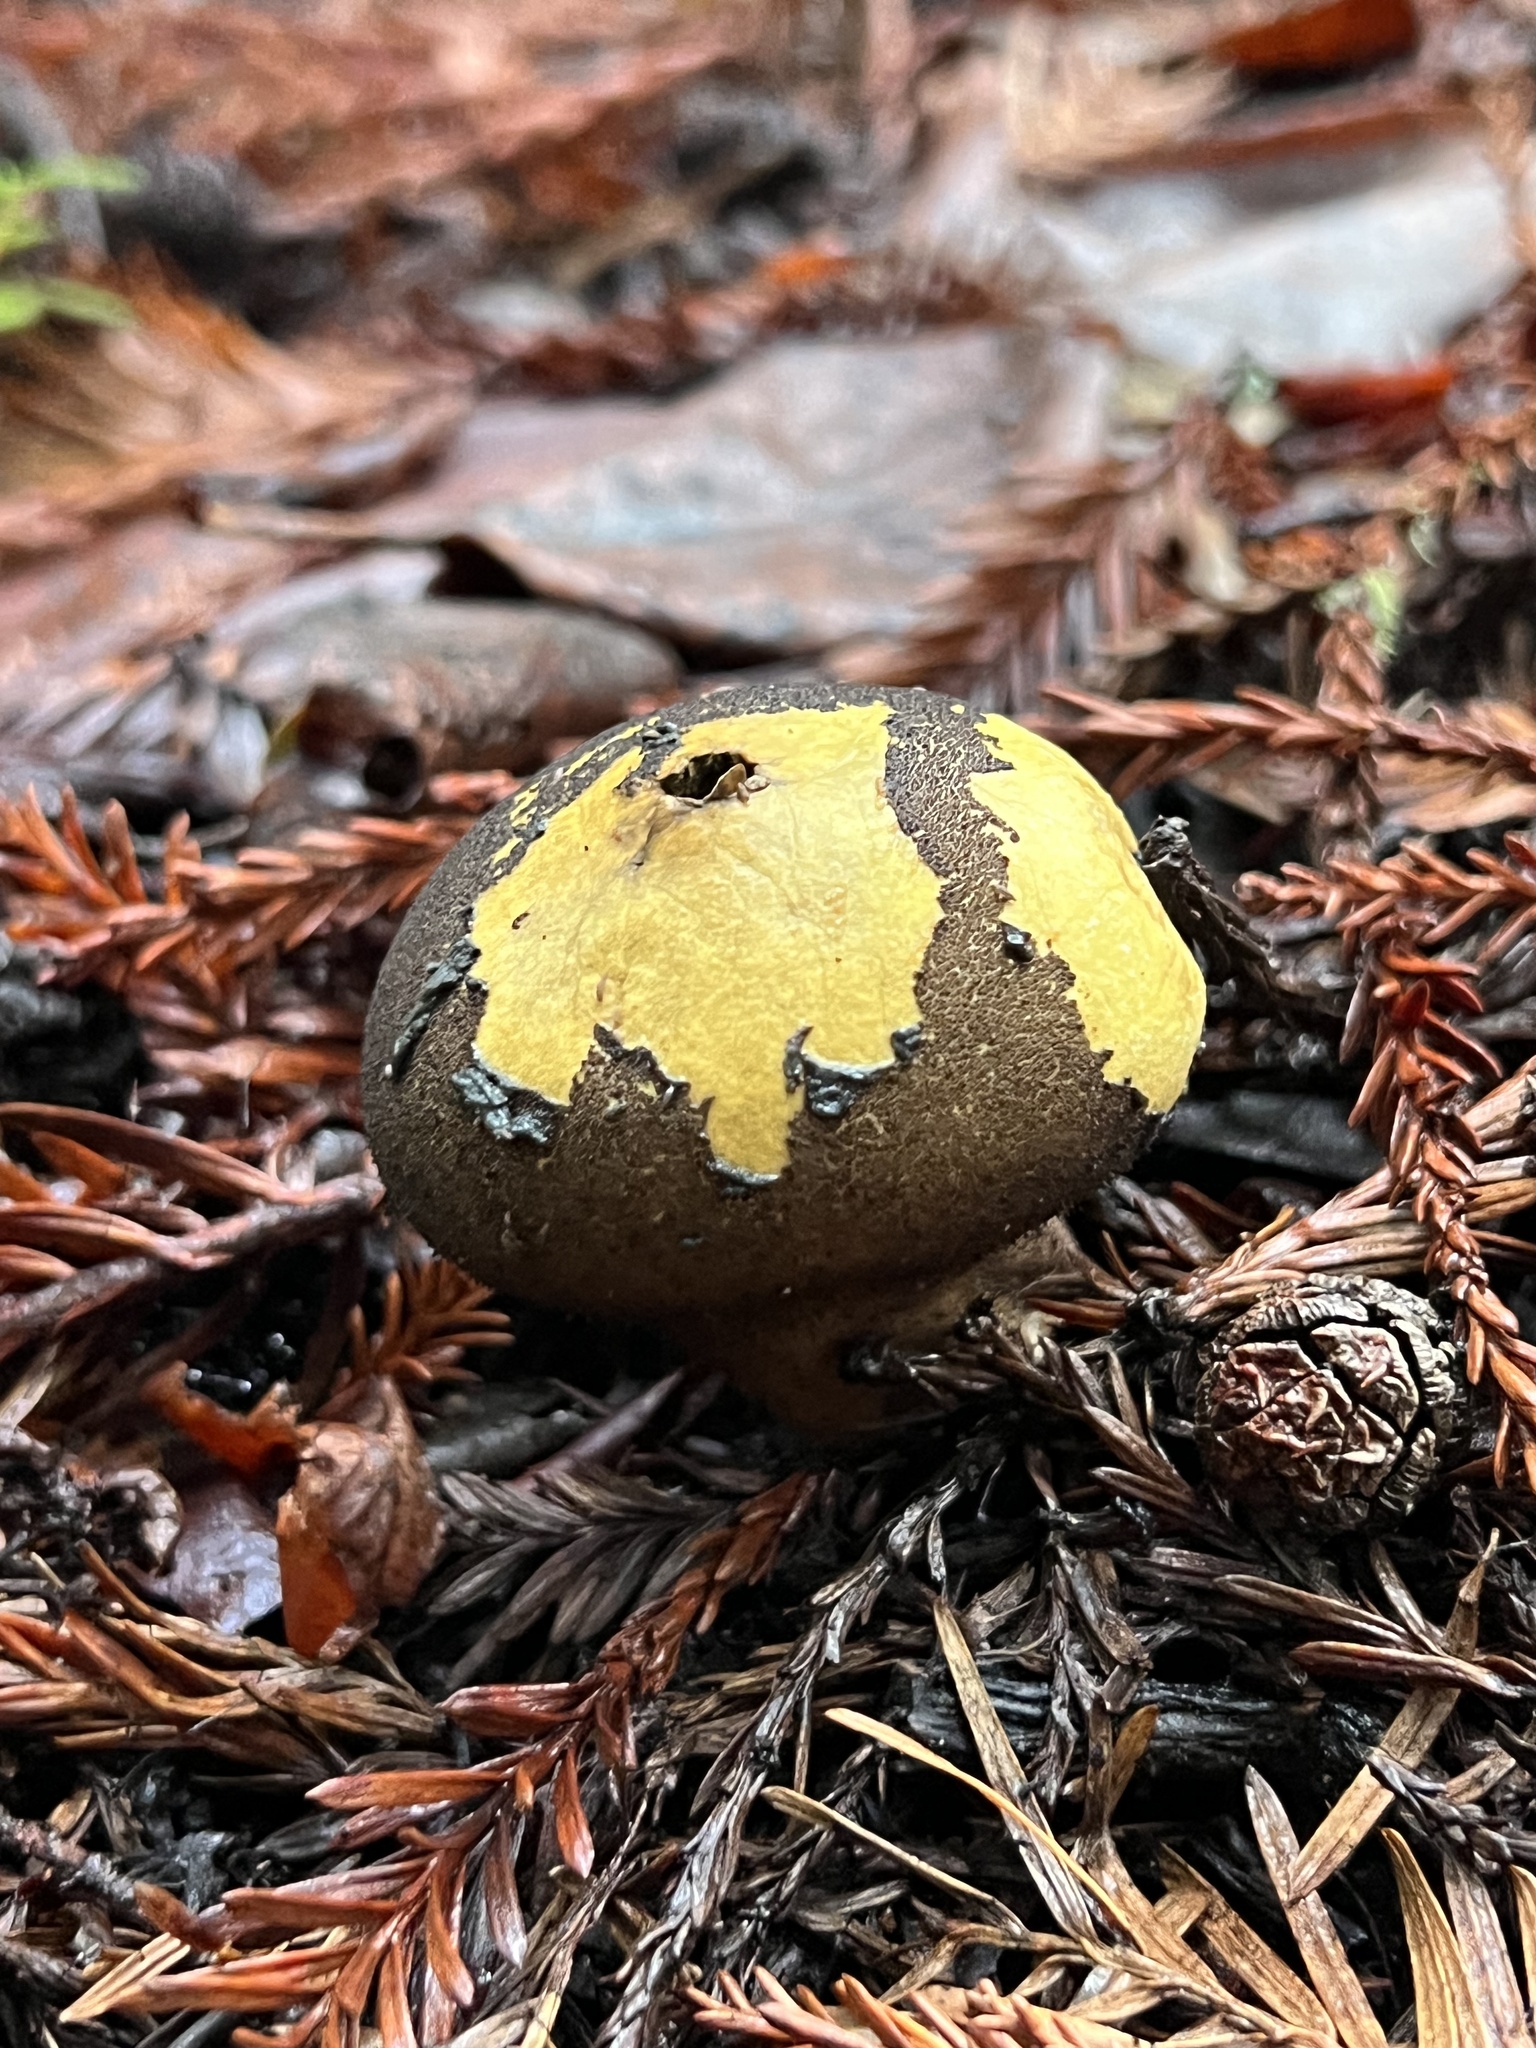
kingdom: Fungi
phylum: Basidiomycota
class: Agaricomycetes
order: Agaricales
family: Lycoperdaceae
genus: Lycoperdon
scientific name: Lycoperdon umbrinum
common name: Umber-brown puffball
